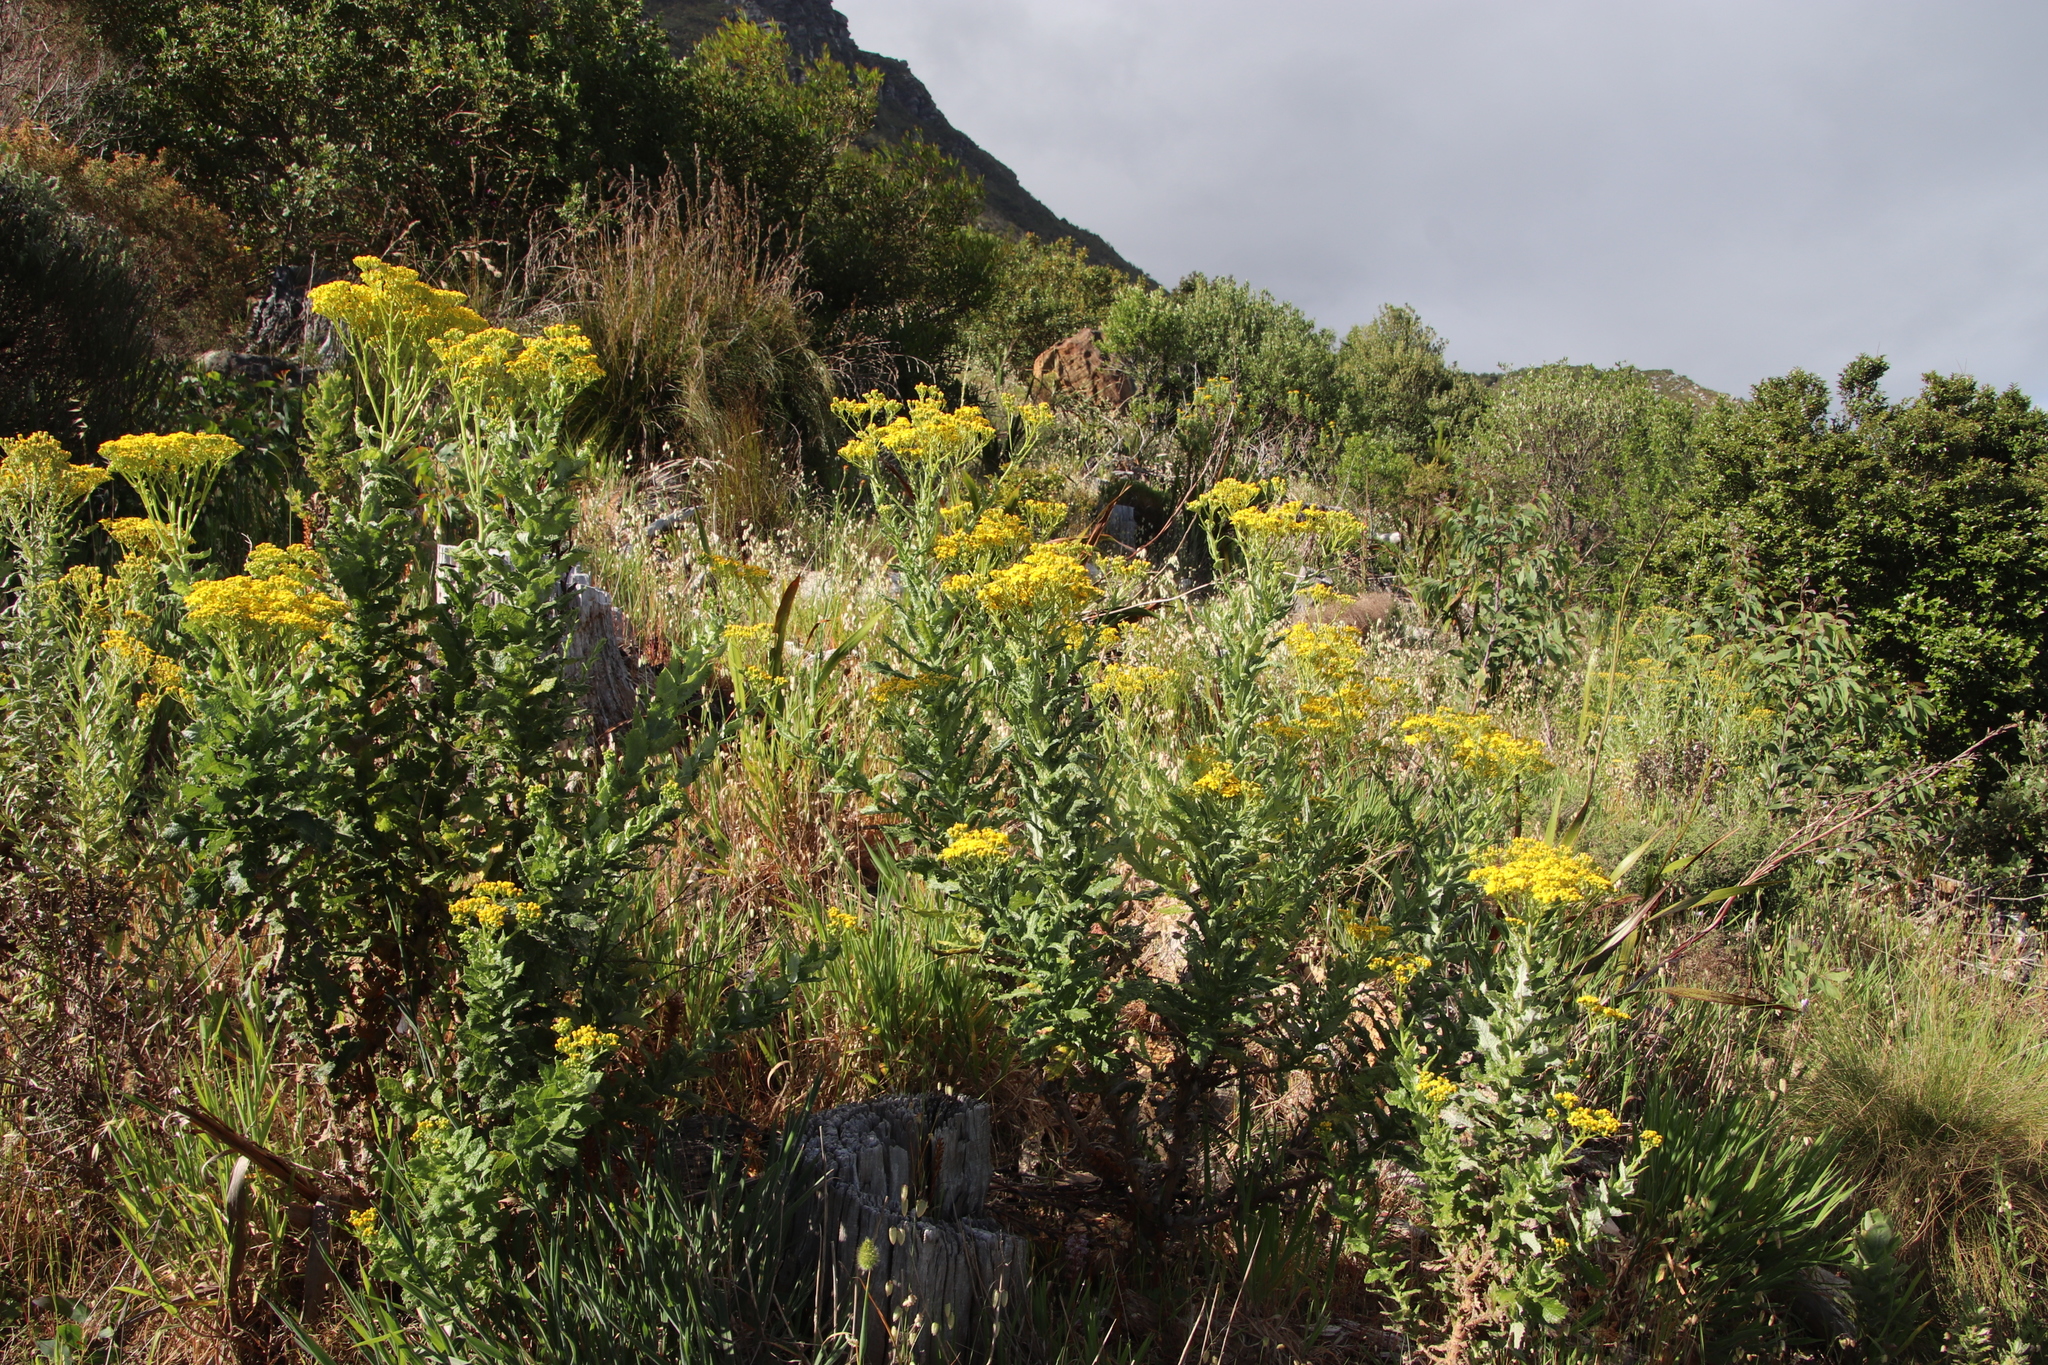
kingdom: Plantae
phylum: Tracheophyta
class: Magnoliopsida
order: Asterales
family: Asteraceae
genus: Senecio
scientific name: Senecio rigidus
